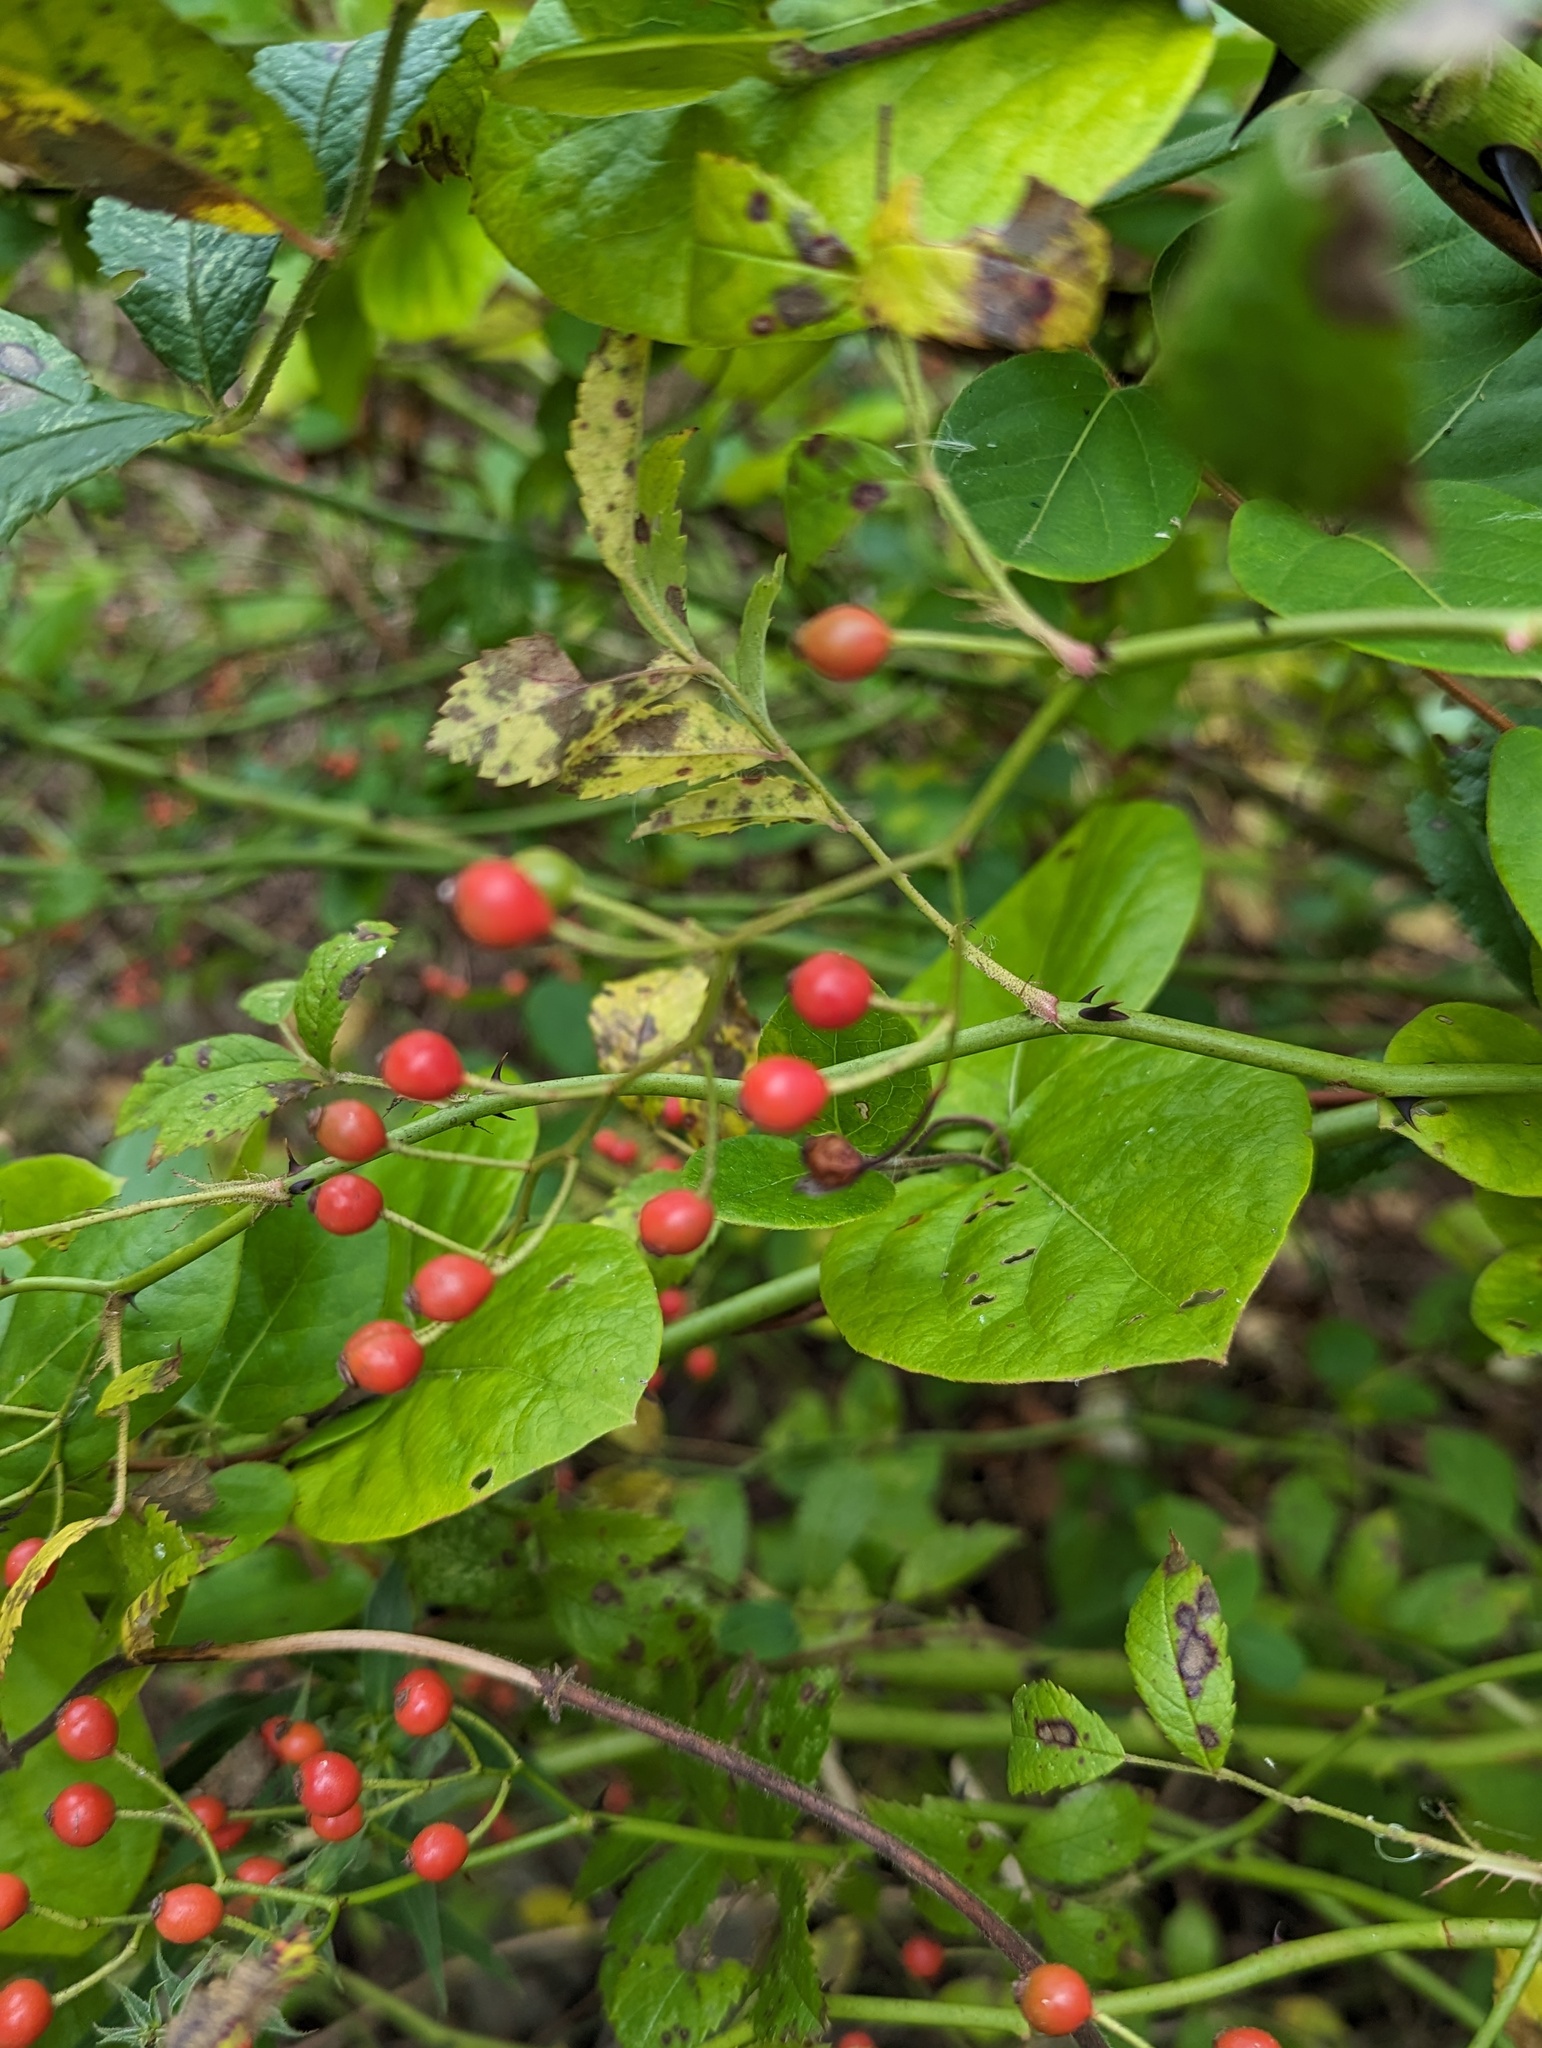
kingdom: Plantae
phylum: Tracheophyta
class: Magnoliopsida
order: Rosales
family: Rosaceae
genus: Rosa
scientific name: Rosa multiflora
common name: Multiflora rose
